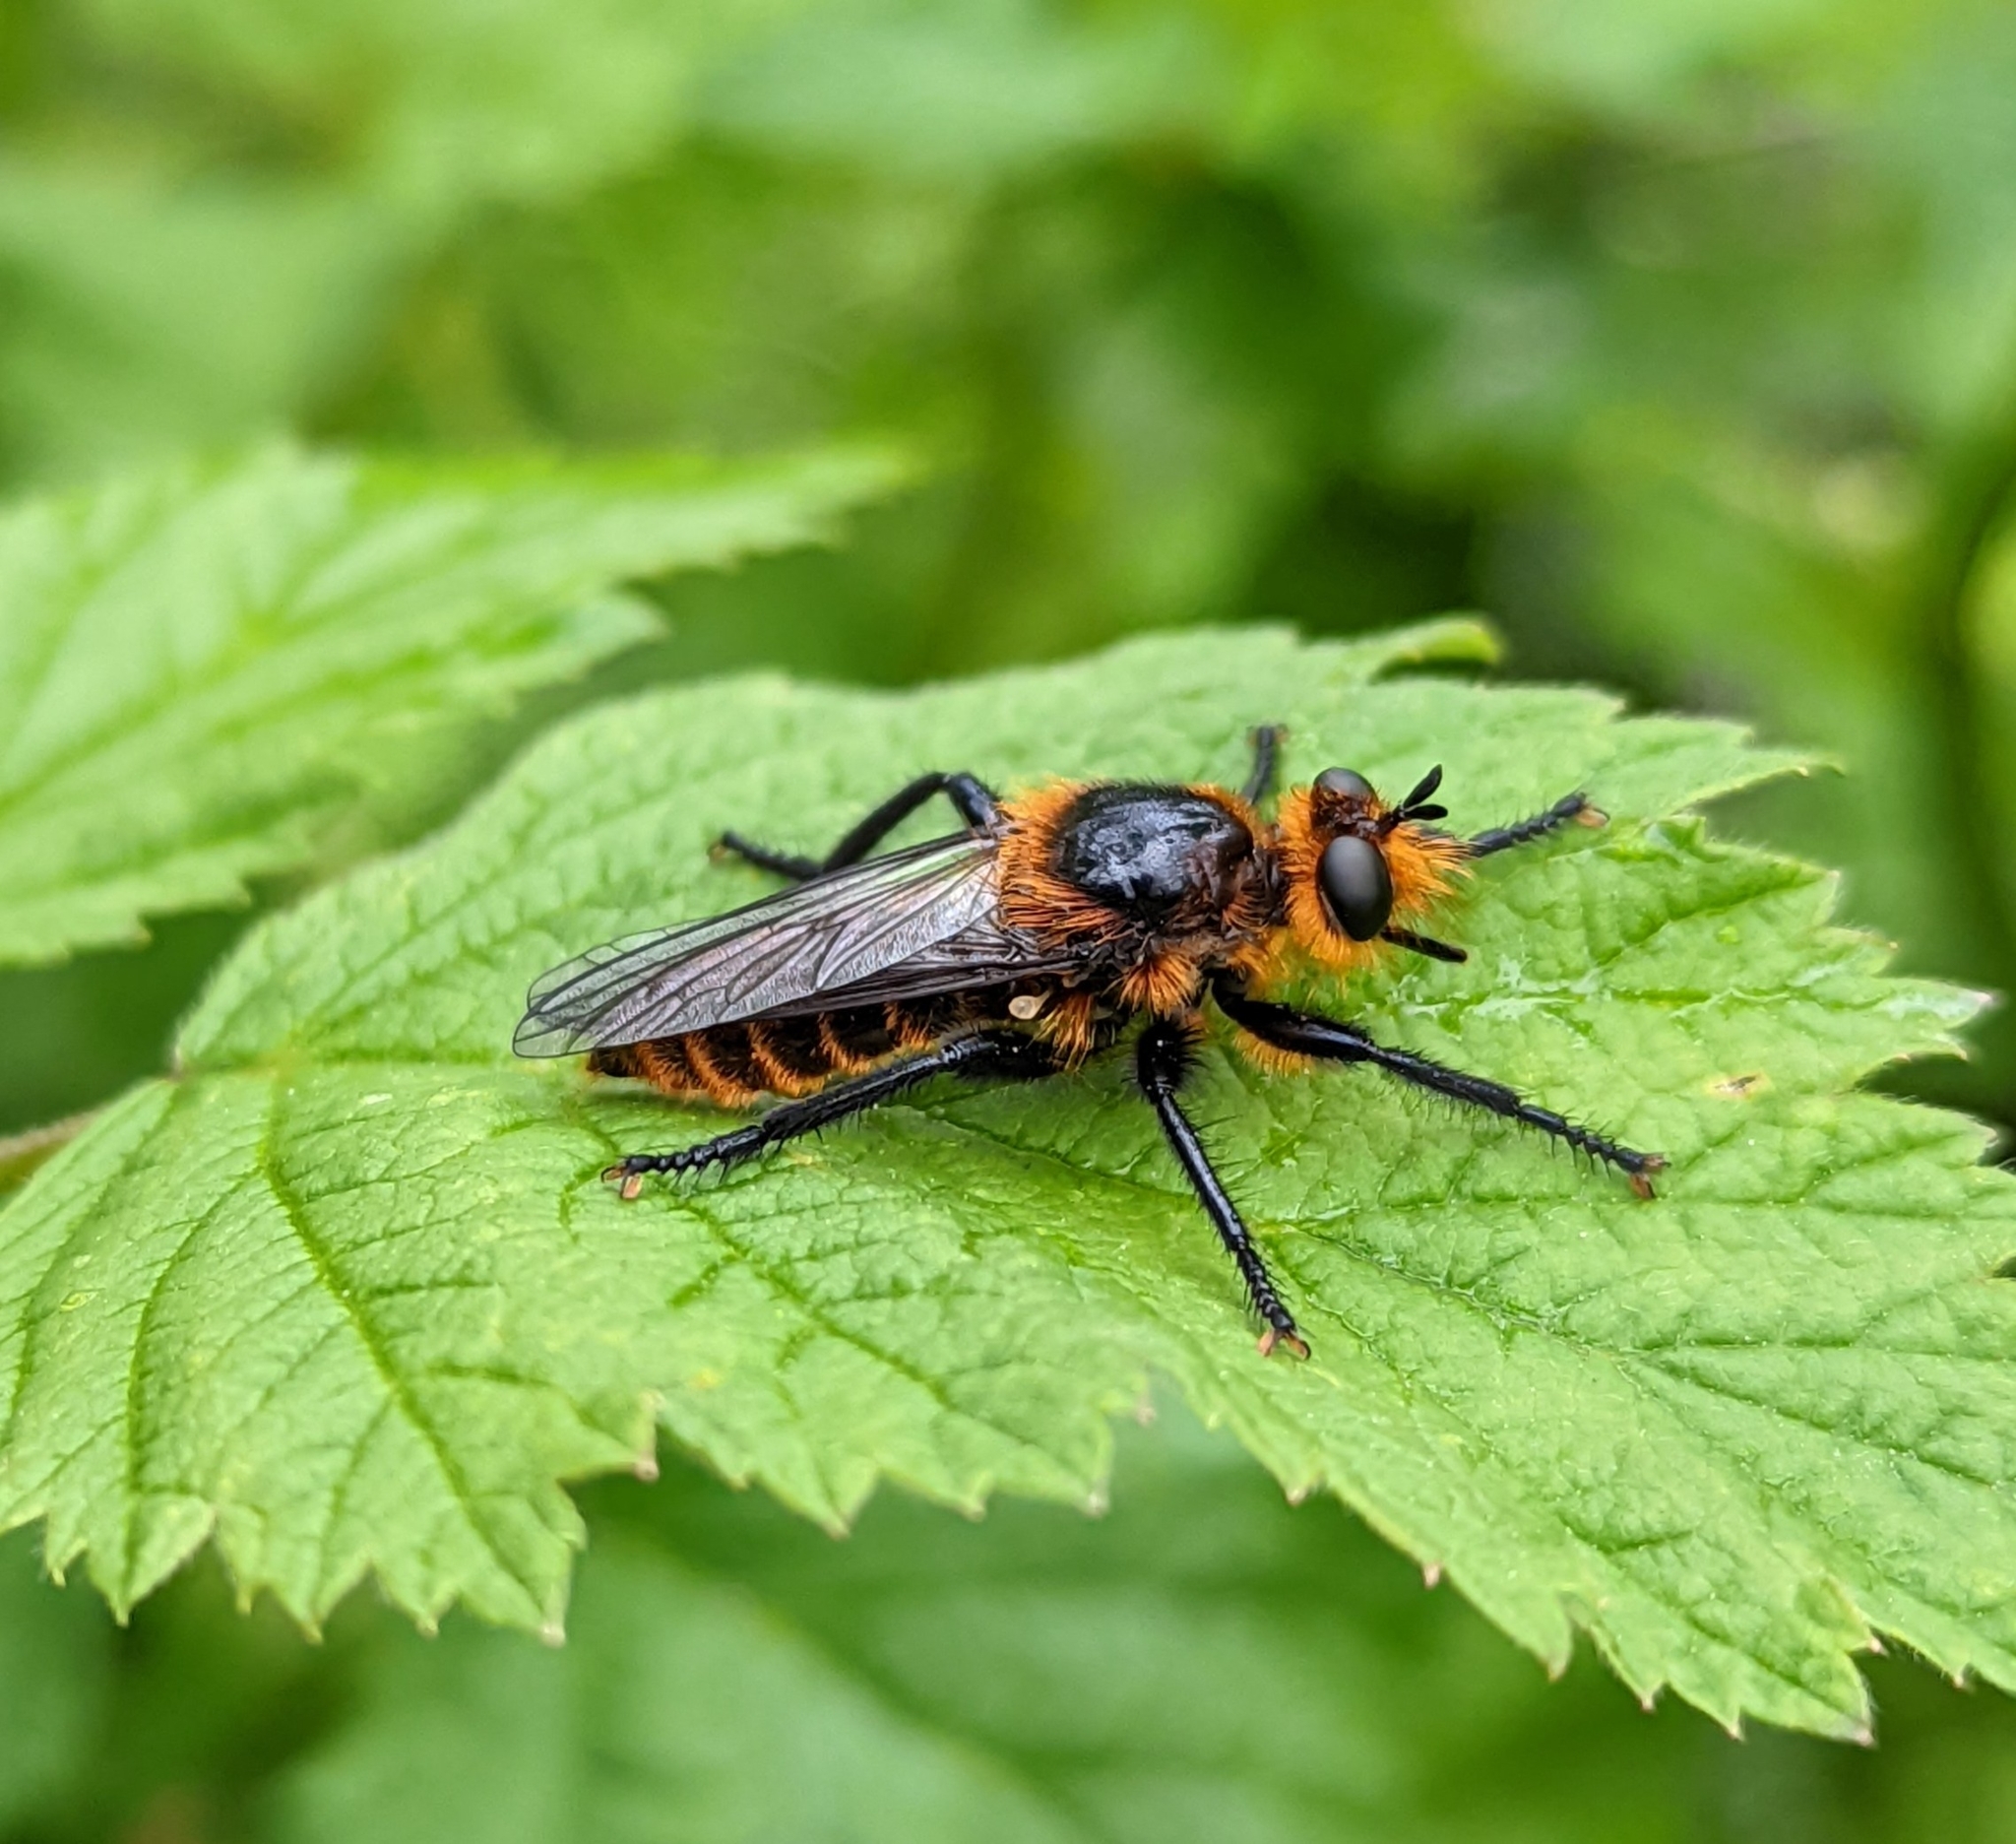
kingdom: Animalia
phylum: Arthropoda
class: Insecta
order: Diptera
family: Asilidae
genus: Laphria
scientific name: Laphria asackeni
